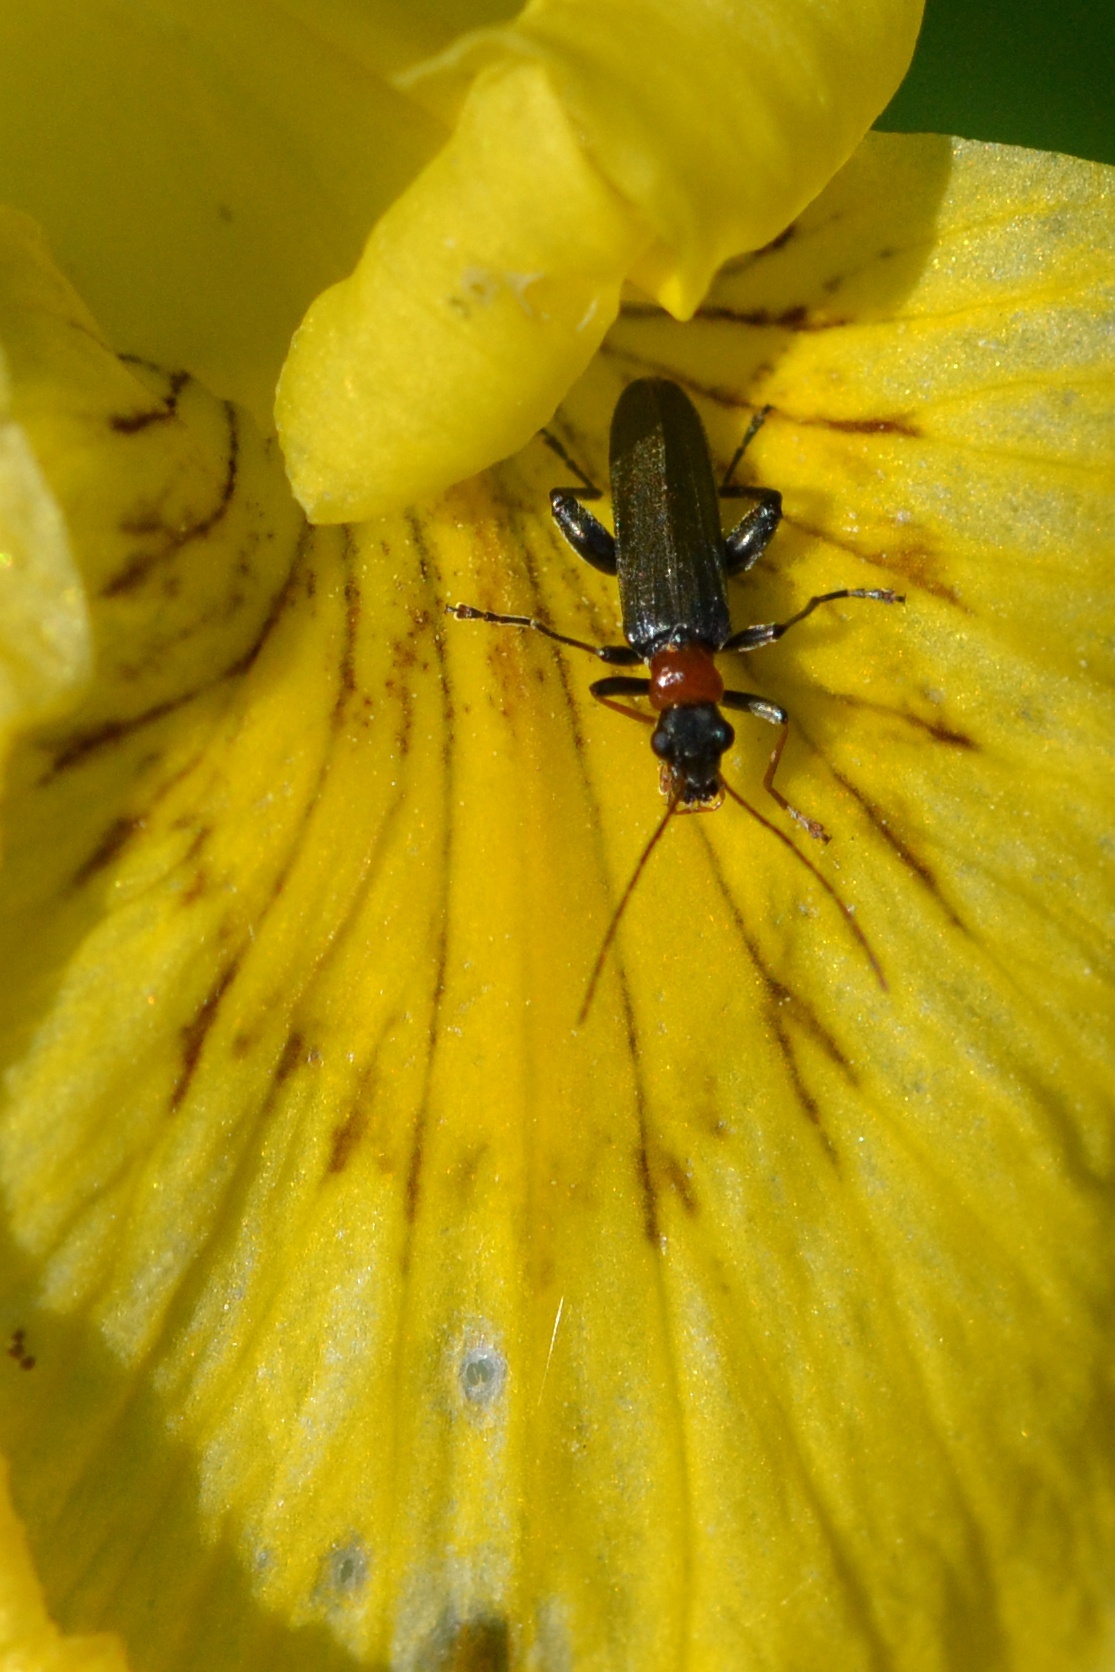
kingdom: Animalia
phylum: Arthropoda
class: Insecta
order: Coleoptera
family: Oedemeridae
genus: Oedemera
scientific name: Oedemera croceicollis
